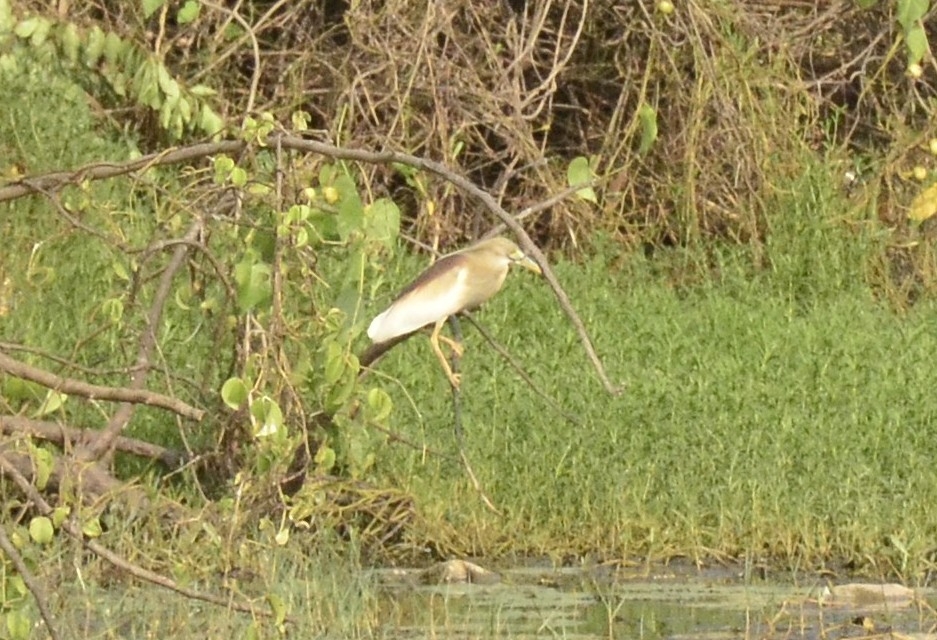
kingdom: Animalia
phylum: Chordata
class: Aves
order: Pelecaniformes
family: Ardeidae
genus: Ardeola
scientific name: Ardeola grayii
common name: Indian pond heron
